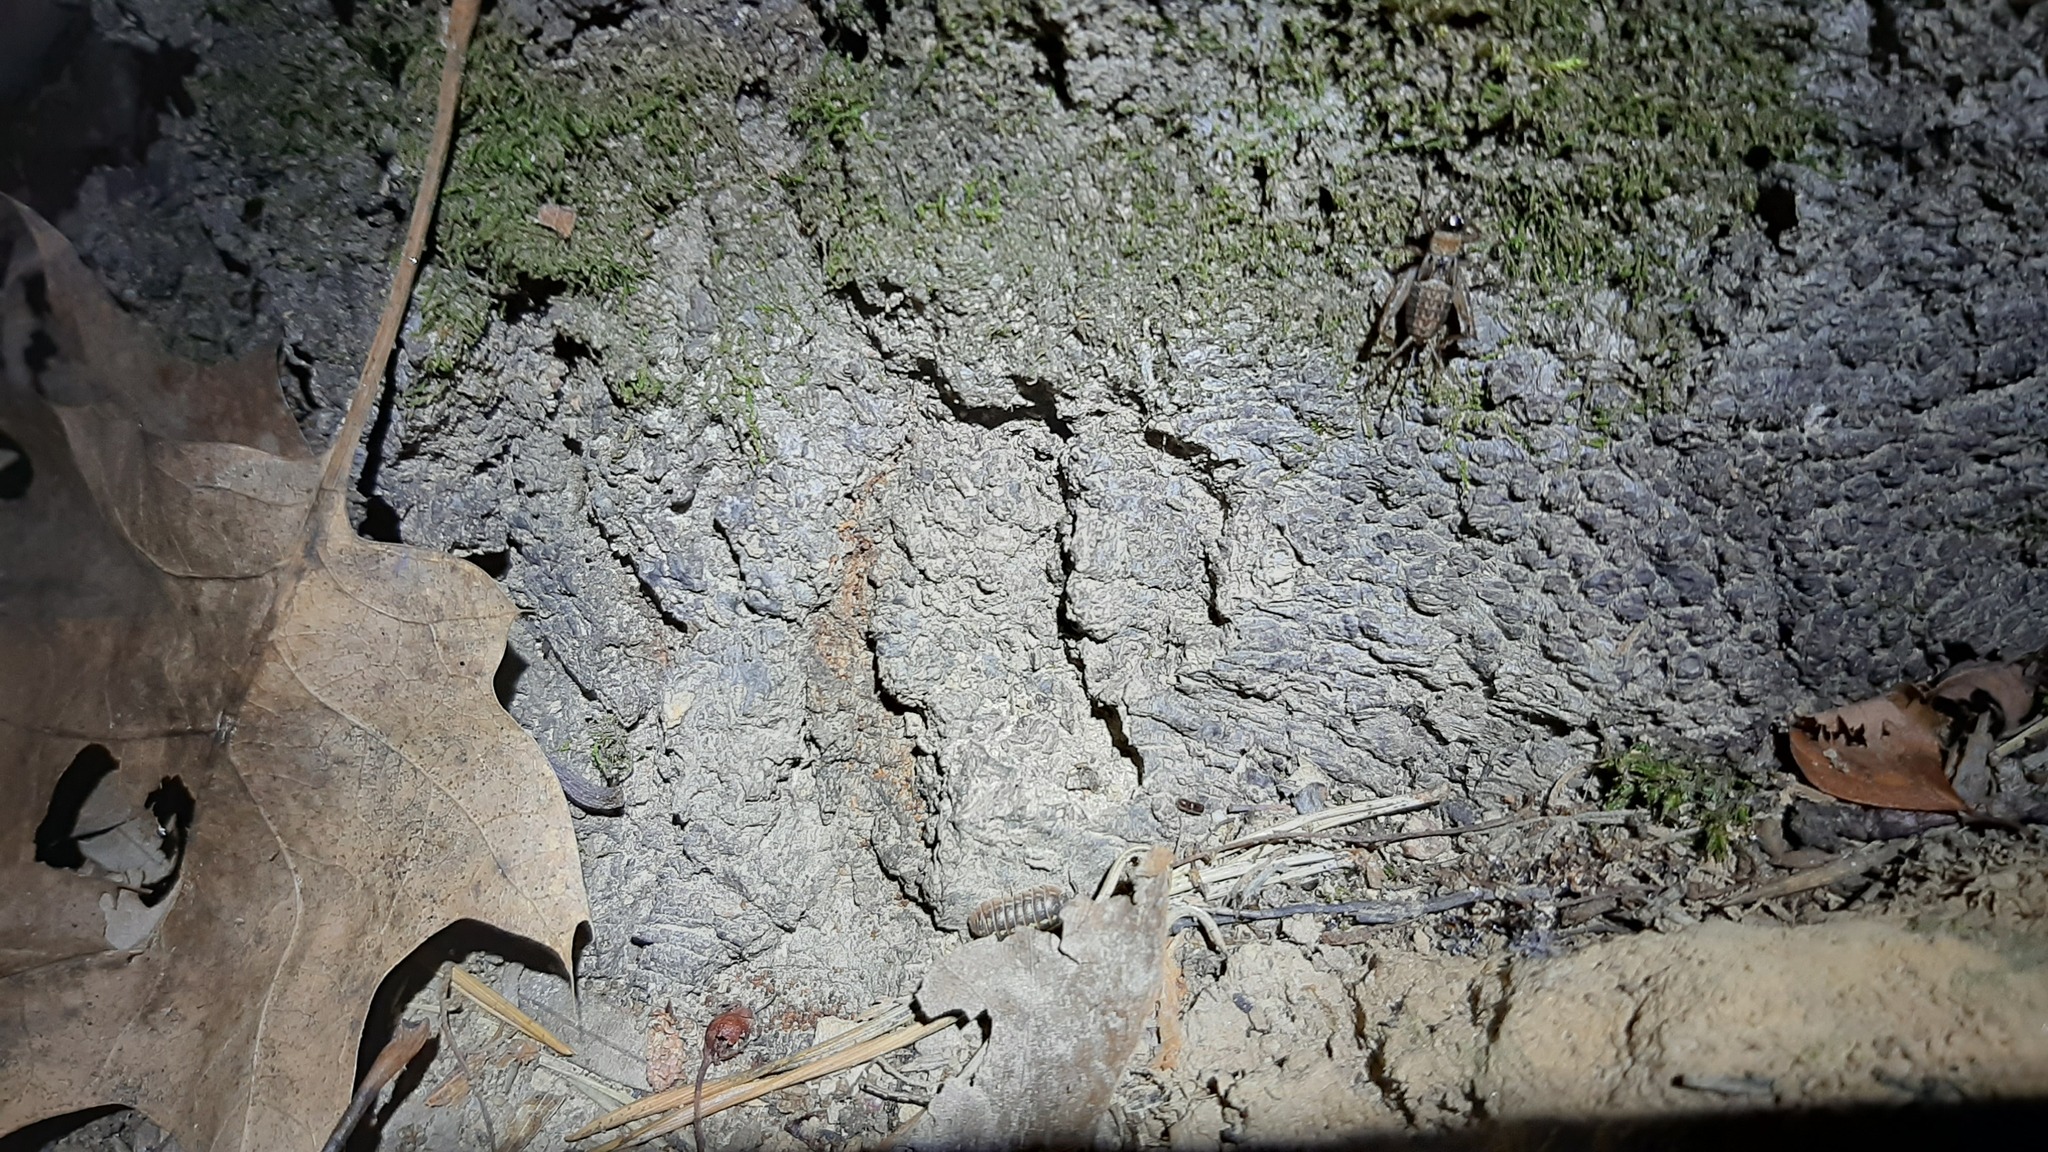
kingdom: Animalia
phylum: Arthropoda
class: Insecta
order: Orthoptera
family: Trigonidiidae
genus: Nemobius
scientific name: Nemobius sylvestris
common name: Wood-cricket
